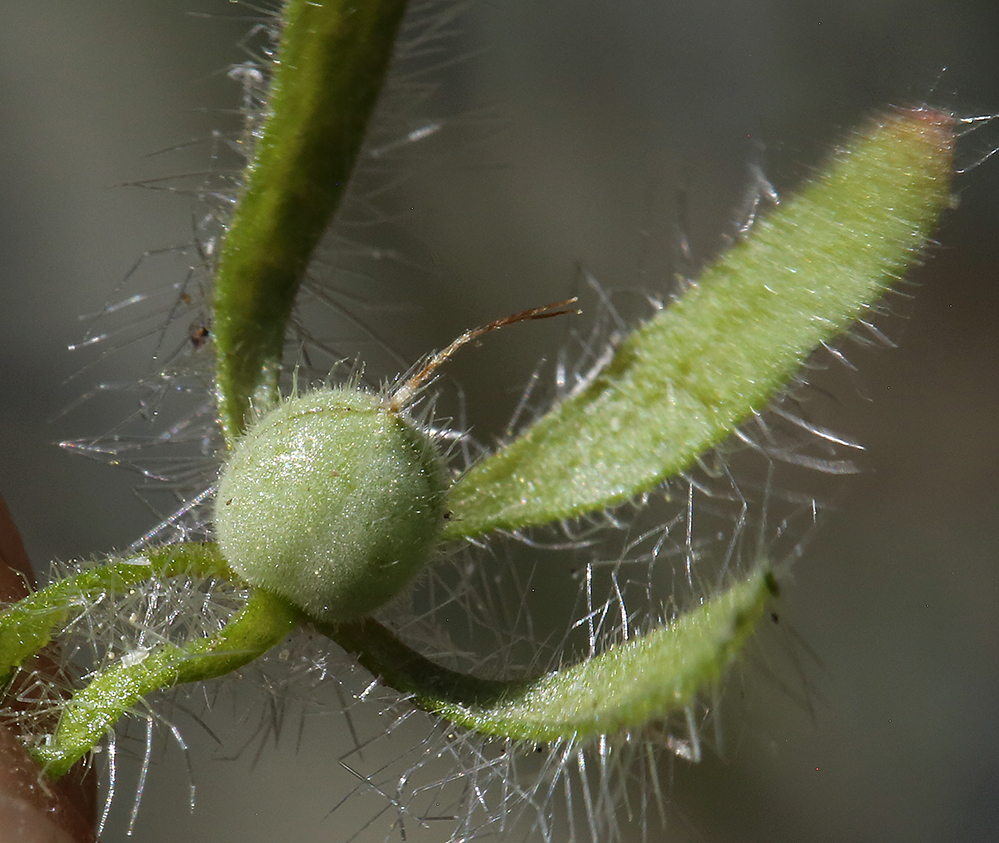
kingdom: Plantae
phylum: Tracheophyta
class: Magnoliopsida
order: Boraginales
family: Hydrophyllaceae
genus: Phacelia
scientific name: Phacelia cryptantha
